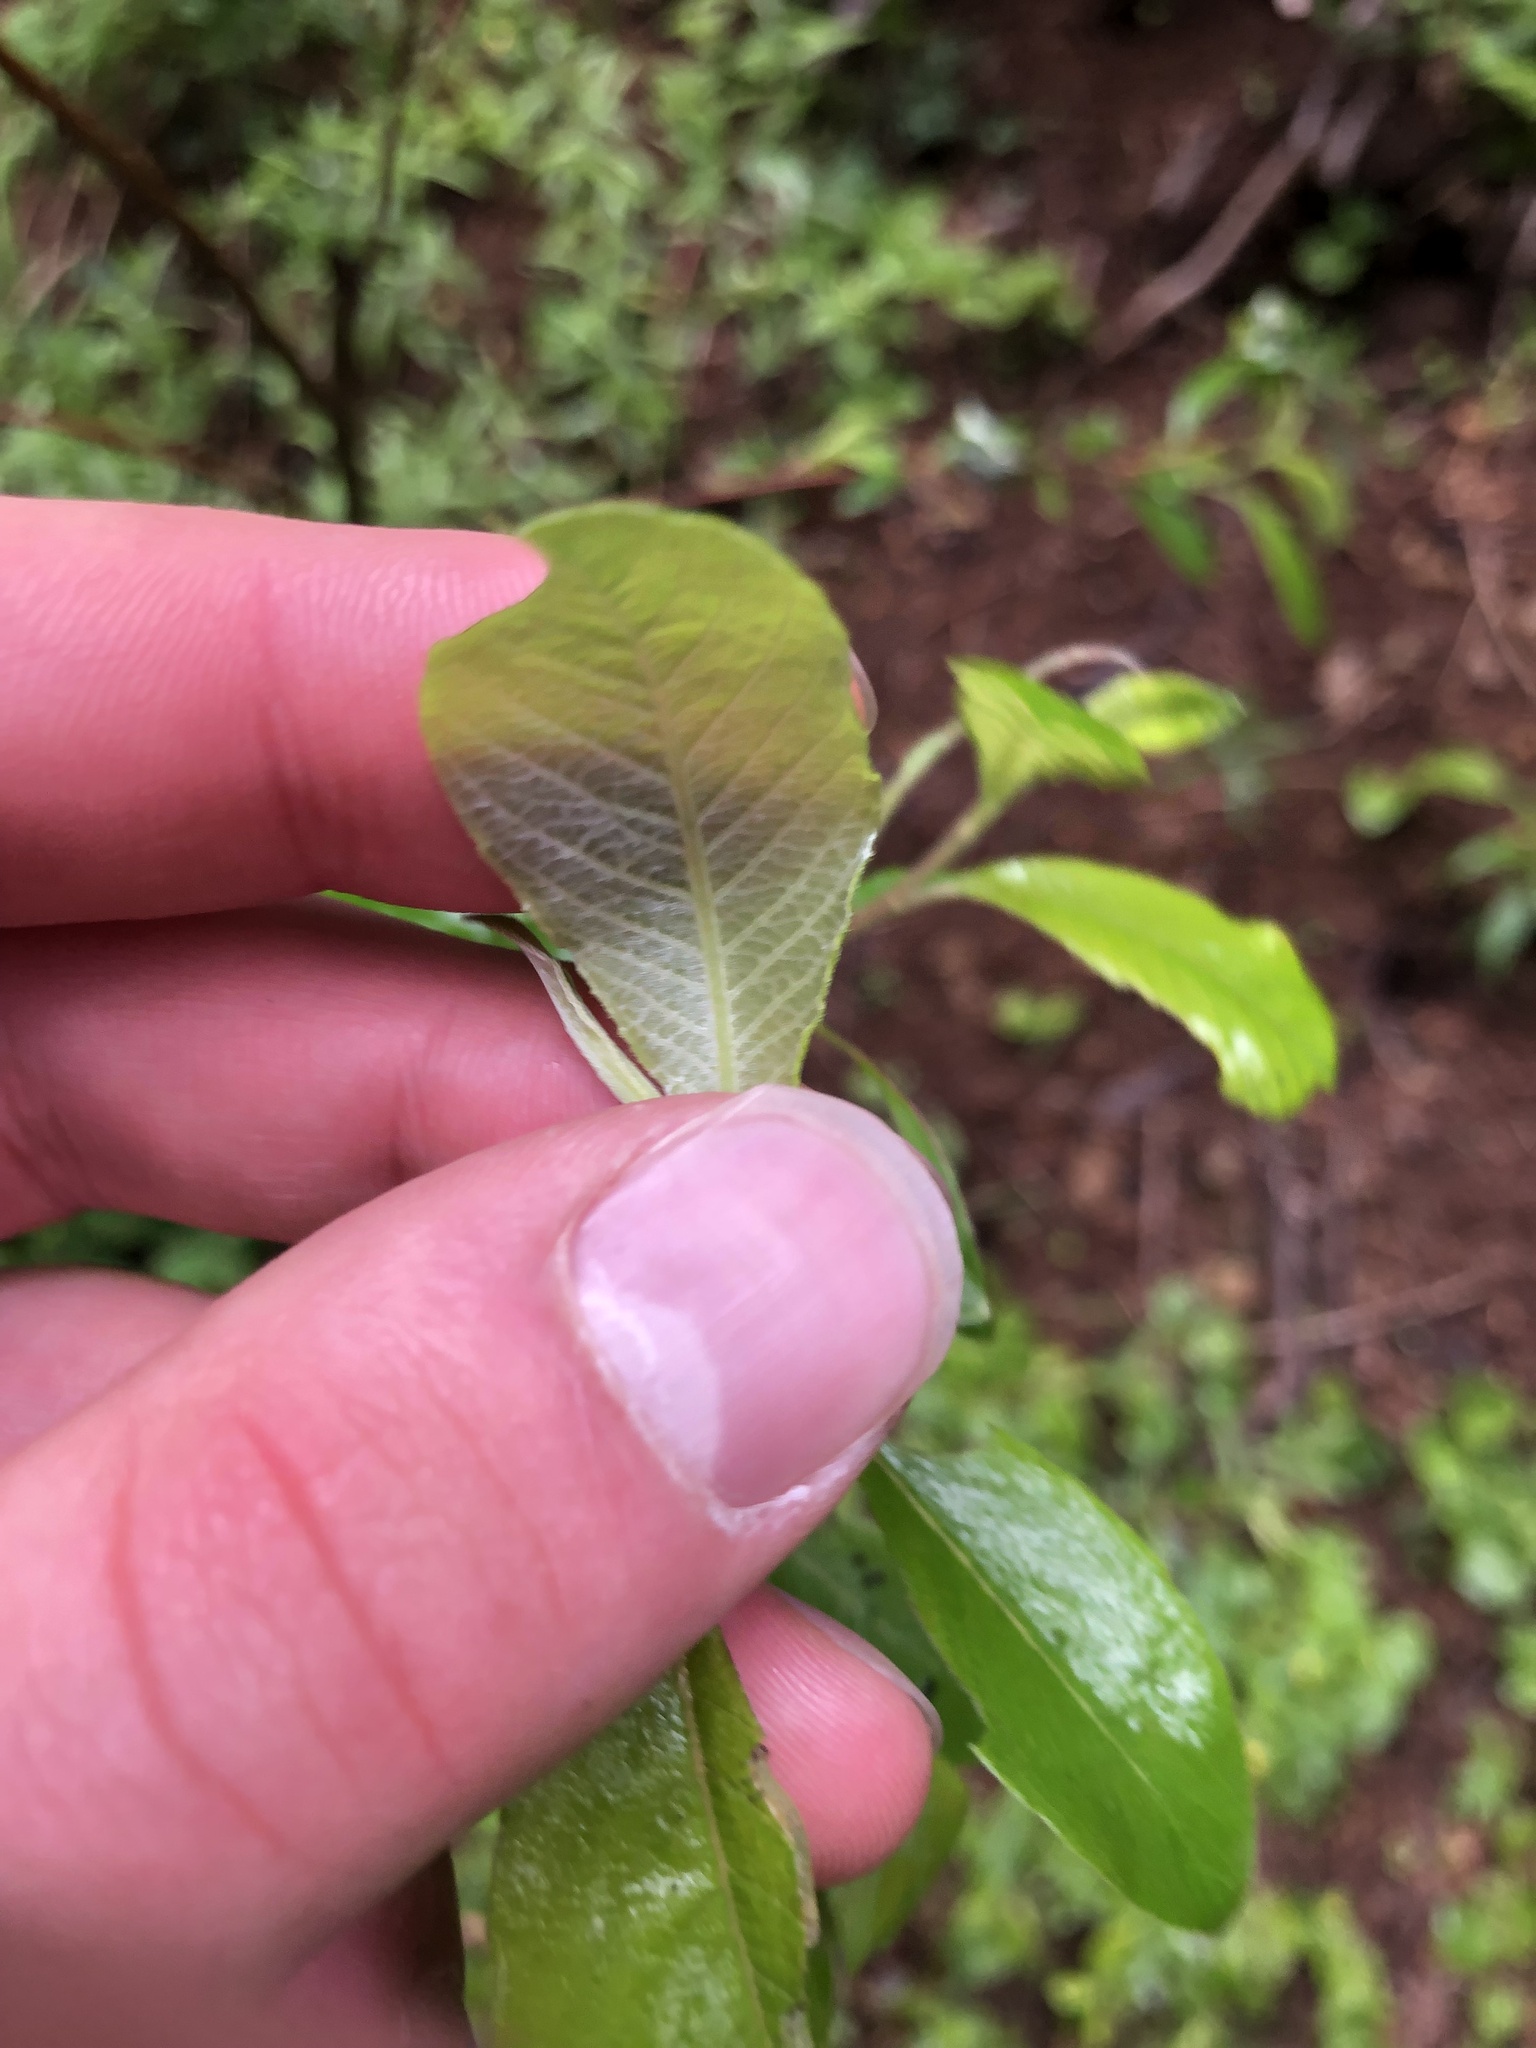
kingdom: Plantae
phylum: Tracheophyta
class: Magnoliopsida
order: Malpighiales
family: Salicaceae
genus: Salix
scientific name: Salix sitchensis
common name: Sitka willow
